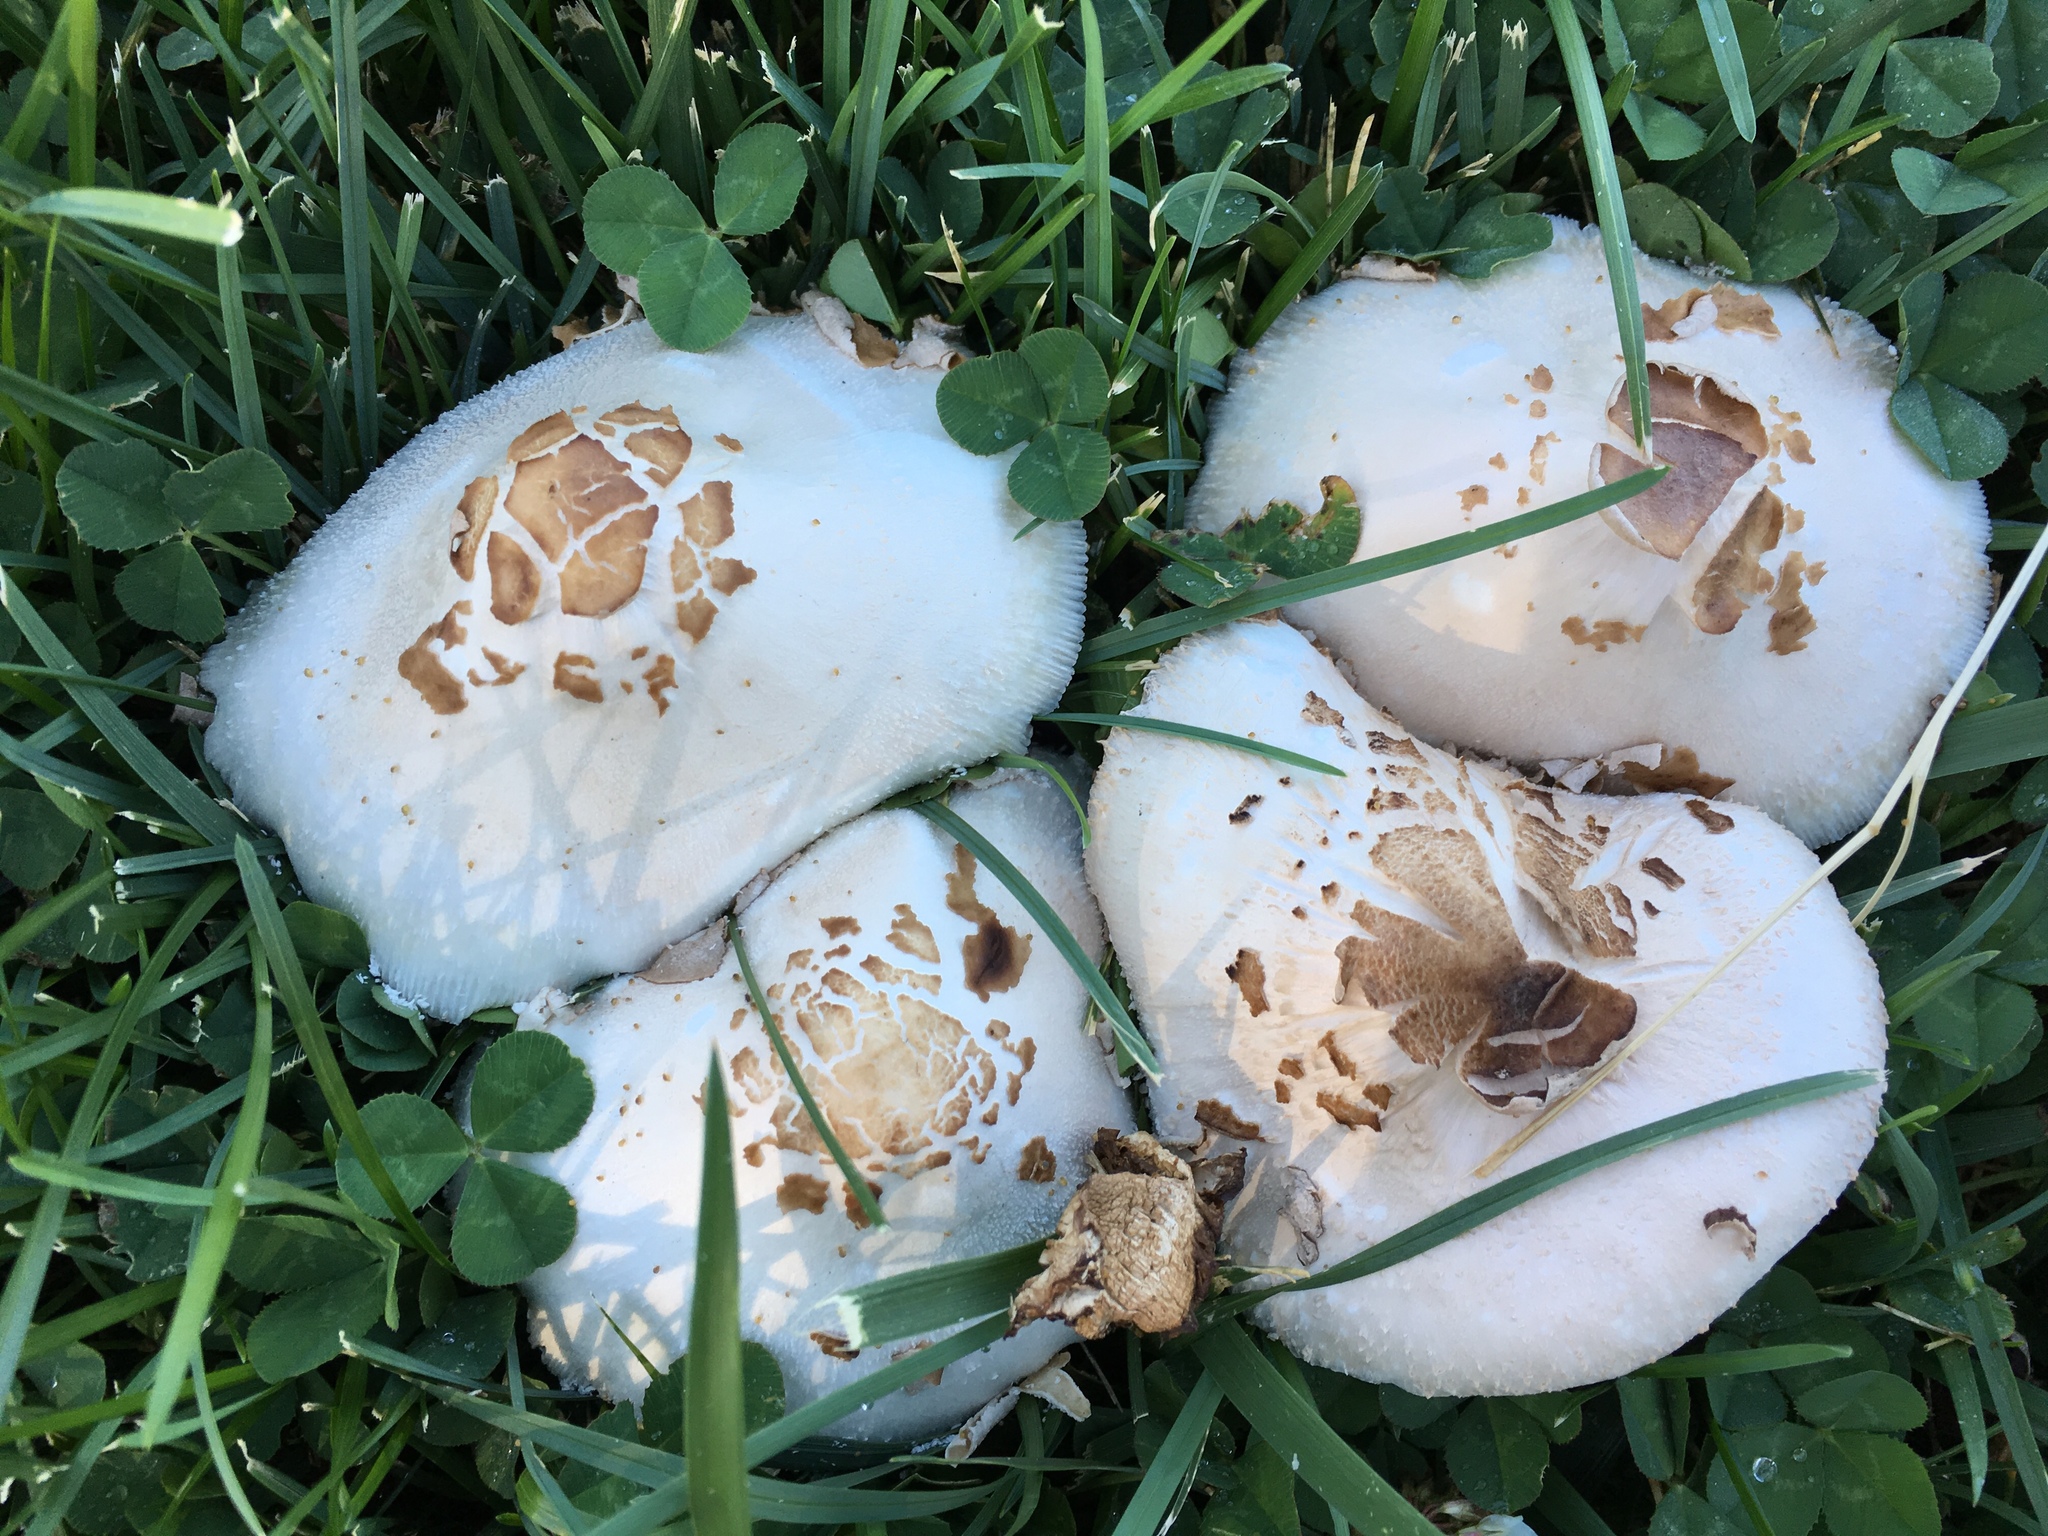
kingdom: Fungi
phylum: Basidiomycota
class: Agaricomycetes
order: Agaricales
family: Agaricaceae
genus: Chlorophyllum
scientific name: Chlorophyllum molybdites
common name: False parasol
